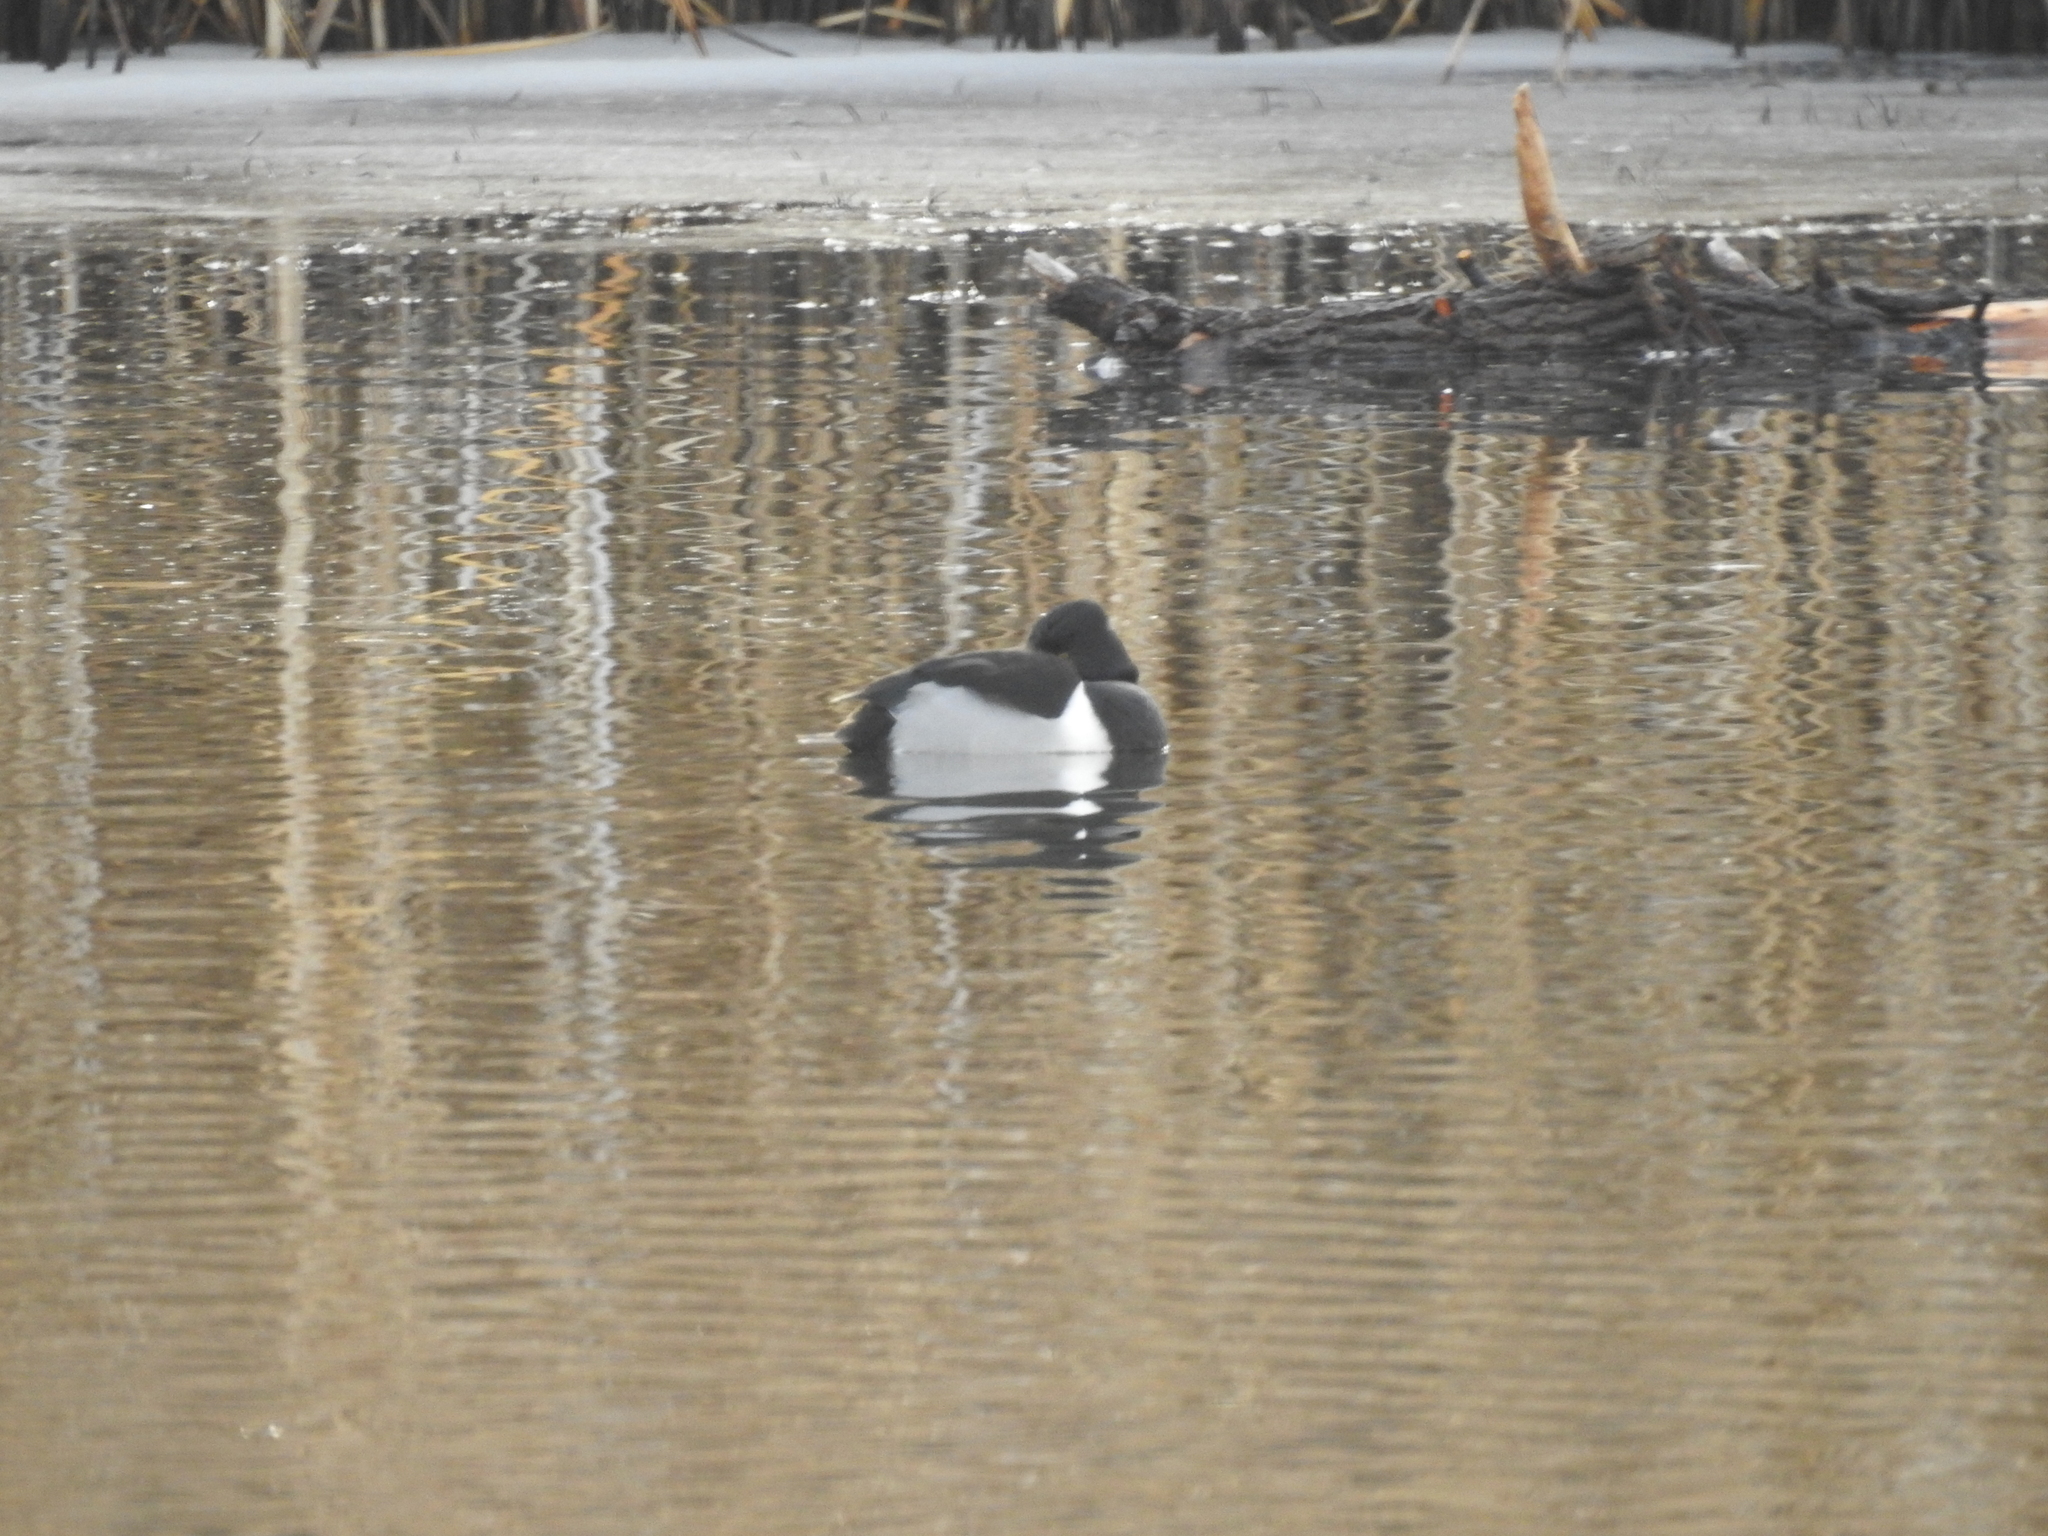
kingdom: Animalia
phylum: Chordata
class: Aves
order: Anseriformes
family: Anatidae
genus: Aythya
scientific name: Aythya collaris
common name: Ring-necked duck
